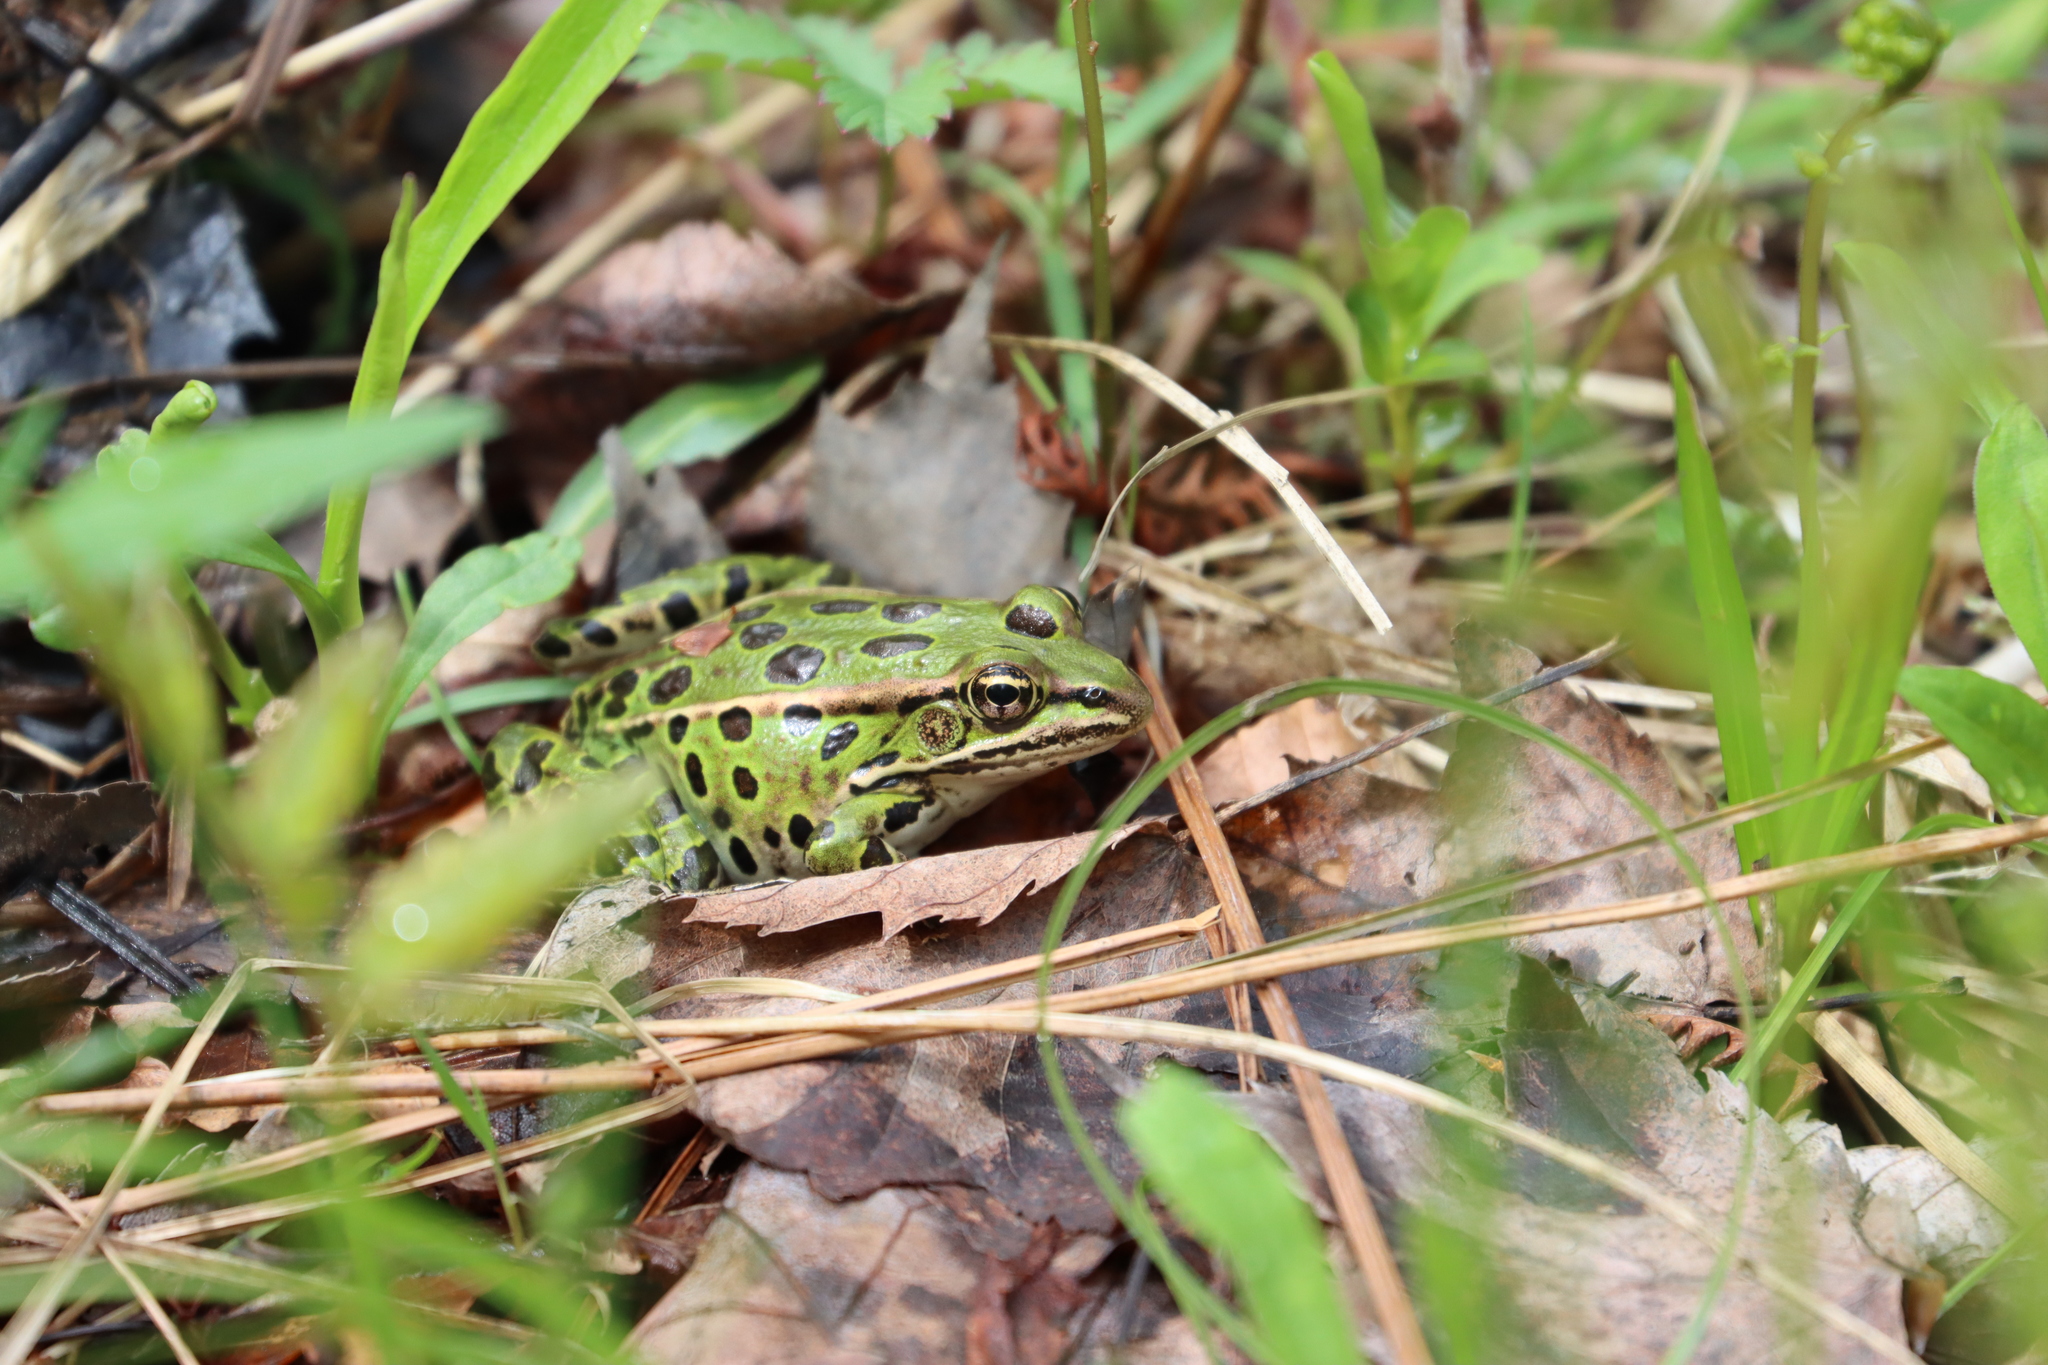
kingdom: Animalia
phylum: Chordata
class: Amphibia
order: Anura
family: Ranidae
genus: Lithobates
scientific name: Lithobates pipiens
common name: Northern leopard frog
